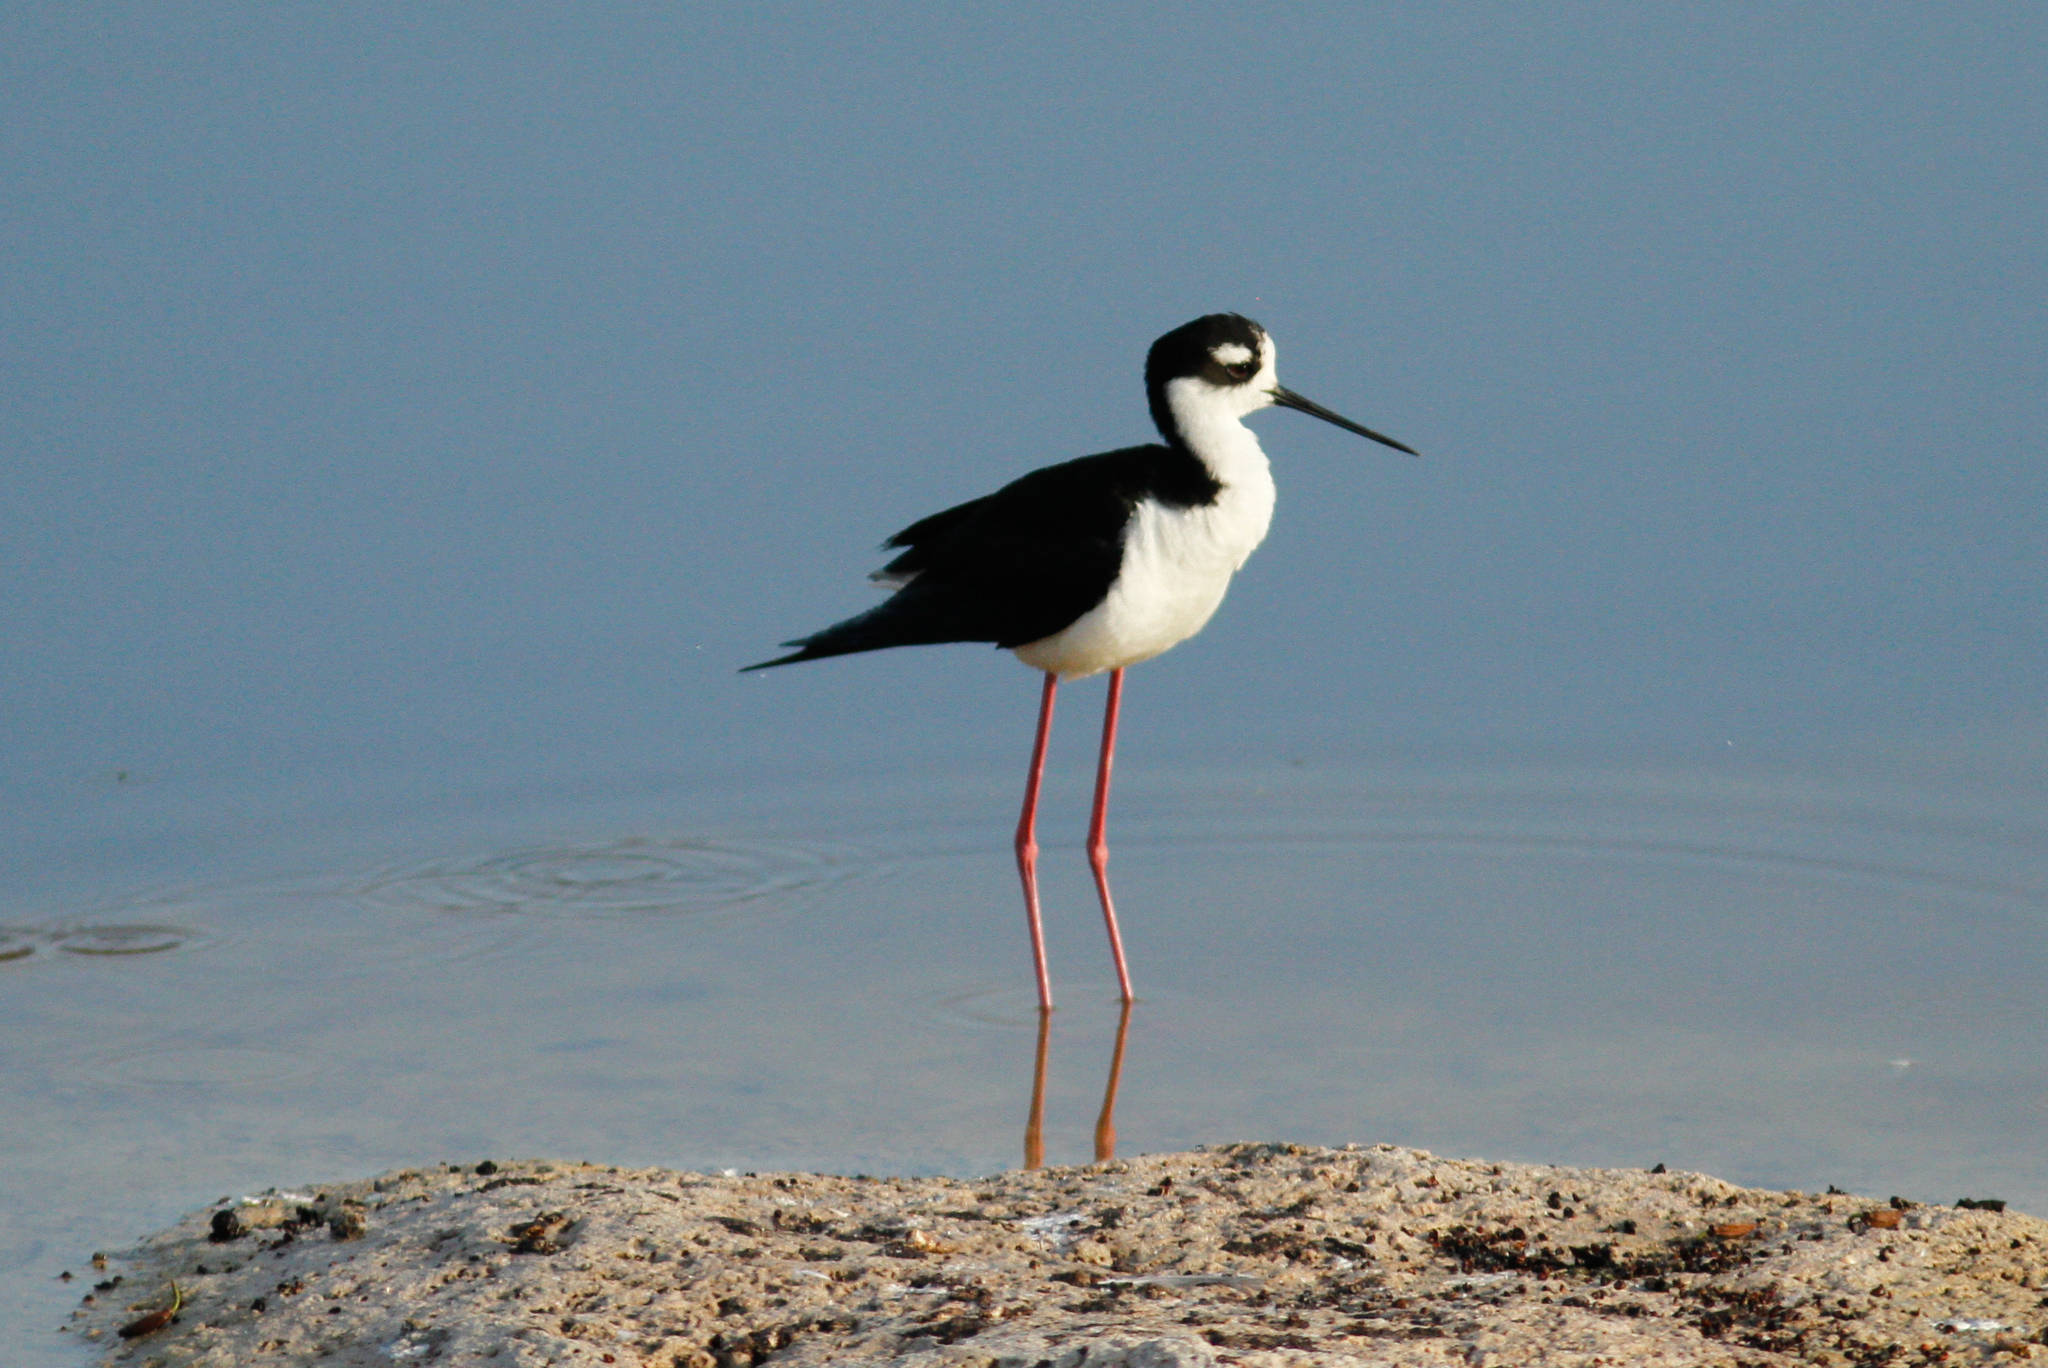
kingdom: Animalia
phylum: Chordata
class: Aves
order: Charadriiformes
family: Recurvirostridae
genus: Himantopus
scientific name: Himantopus mexicanus
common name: Black-necked stilt
